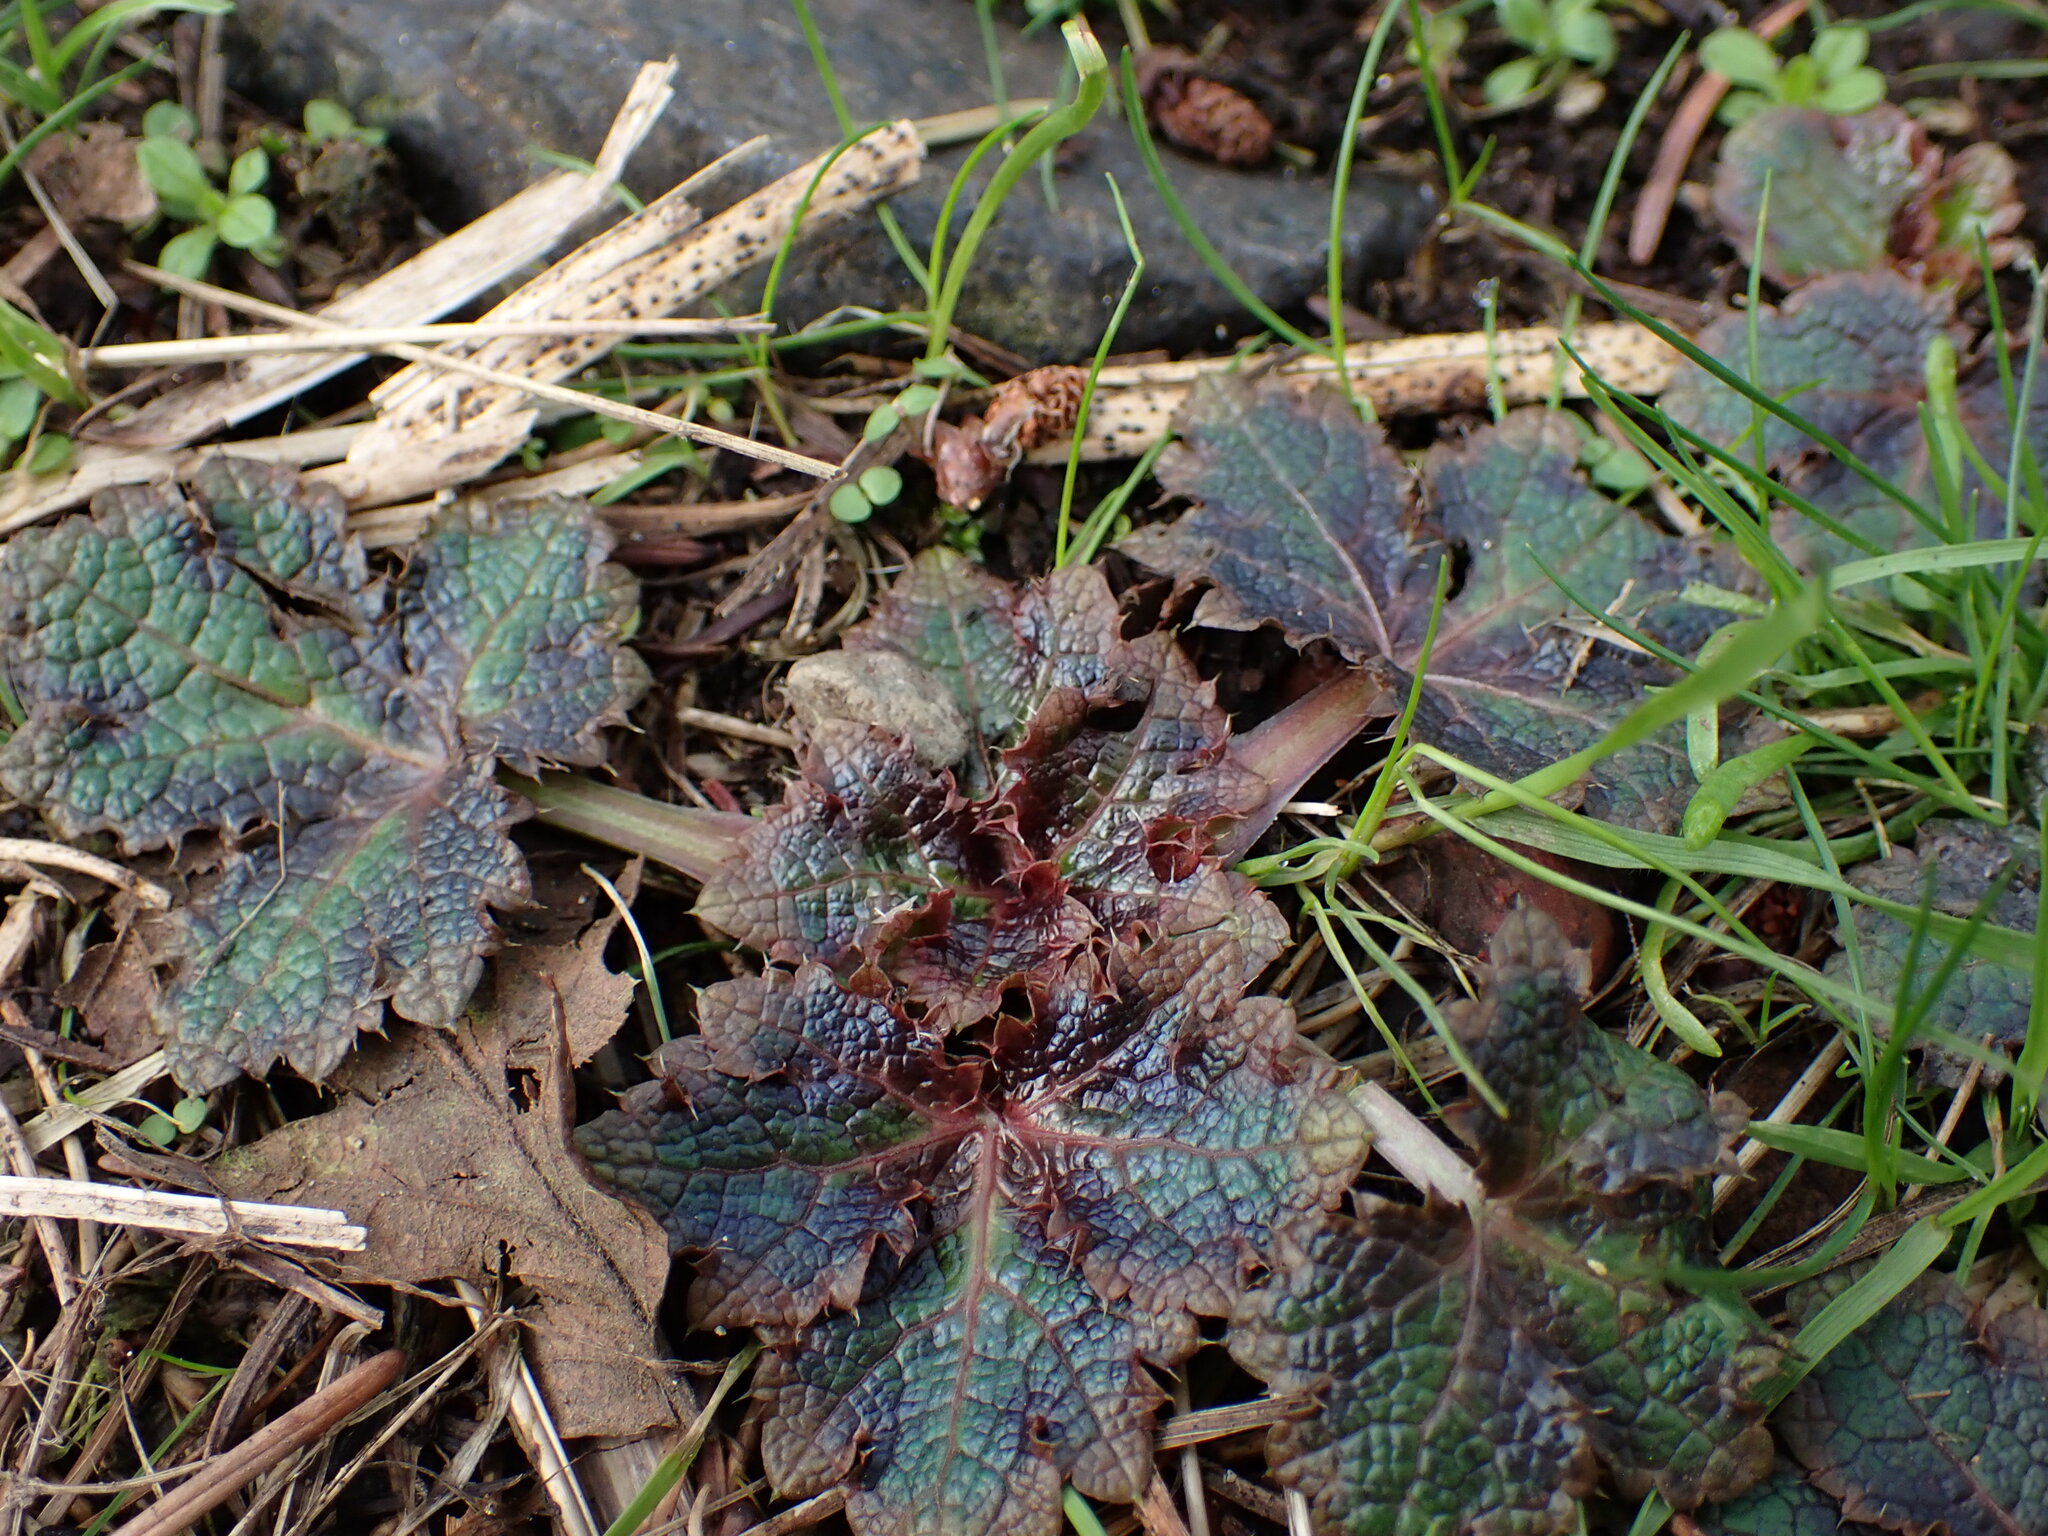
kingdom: Plantae
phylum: Tracheophyta
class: Magnoliopsida
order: Apiales
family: Apiaceae
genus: Sanicula
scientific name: Sanicula crassicaulis
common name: Western snakeroot
